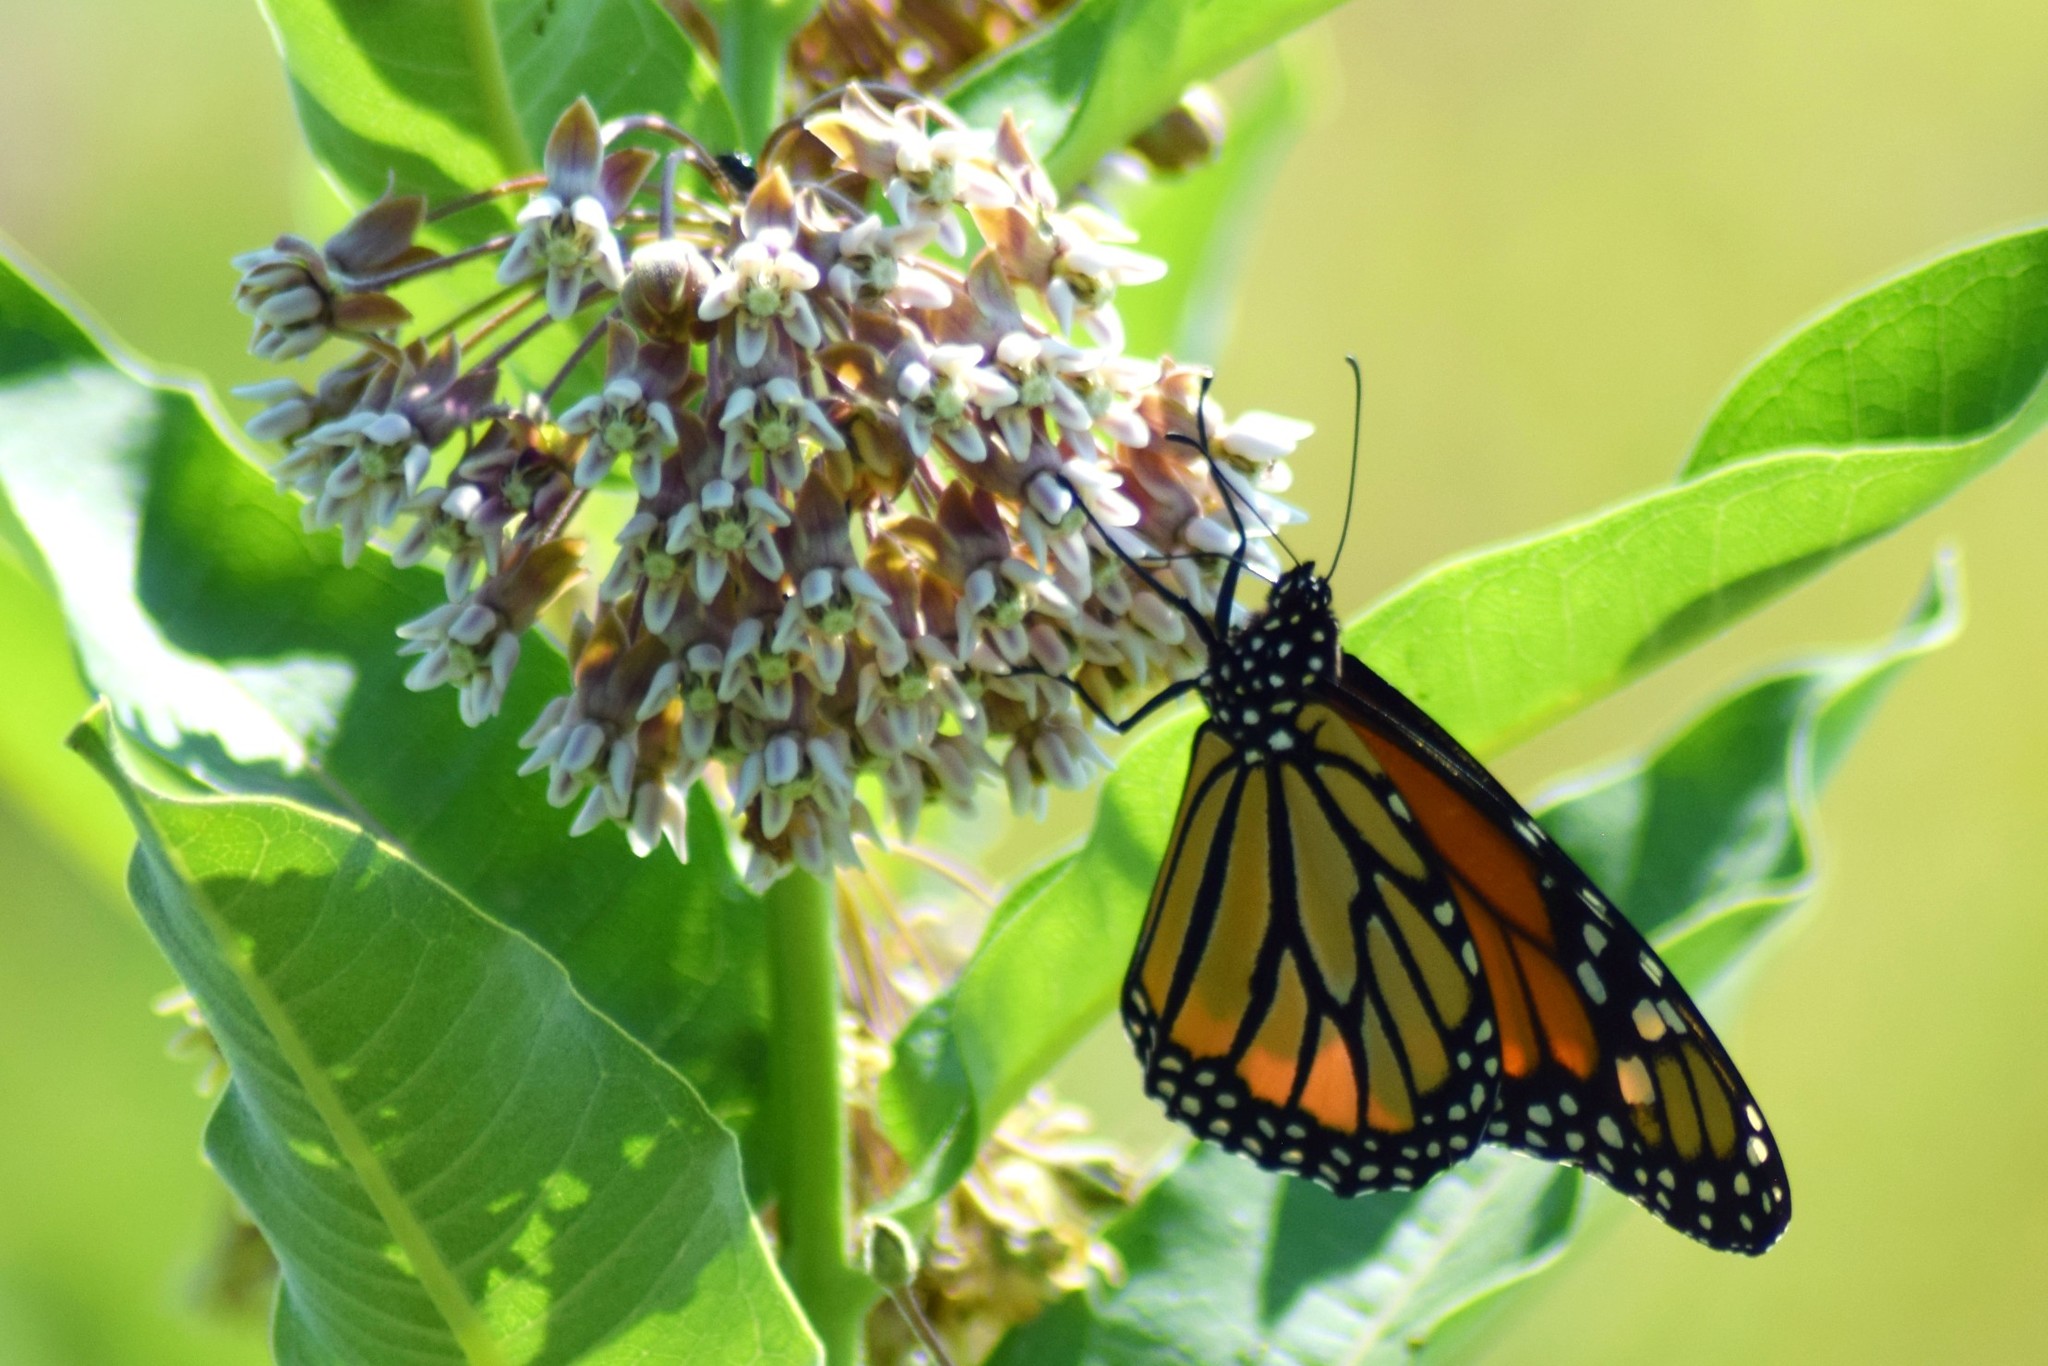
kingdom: Animalia
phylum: Arthropoda
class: Insecta
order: Lepidoptera
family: Nymphalidae
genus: Danaus
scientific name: Danaus plexippus
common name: Monarch
